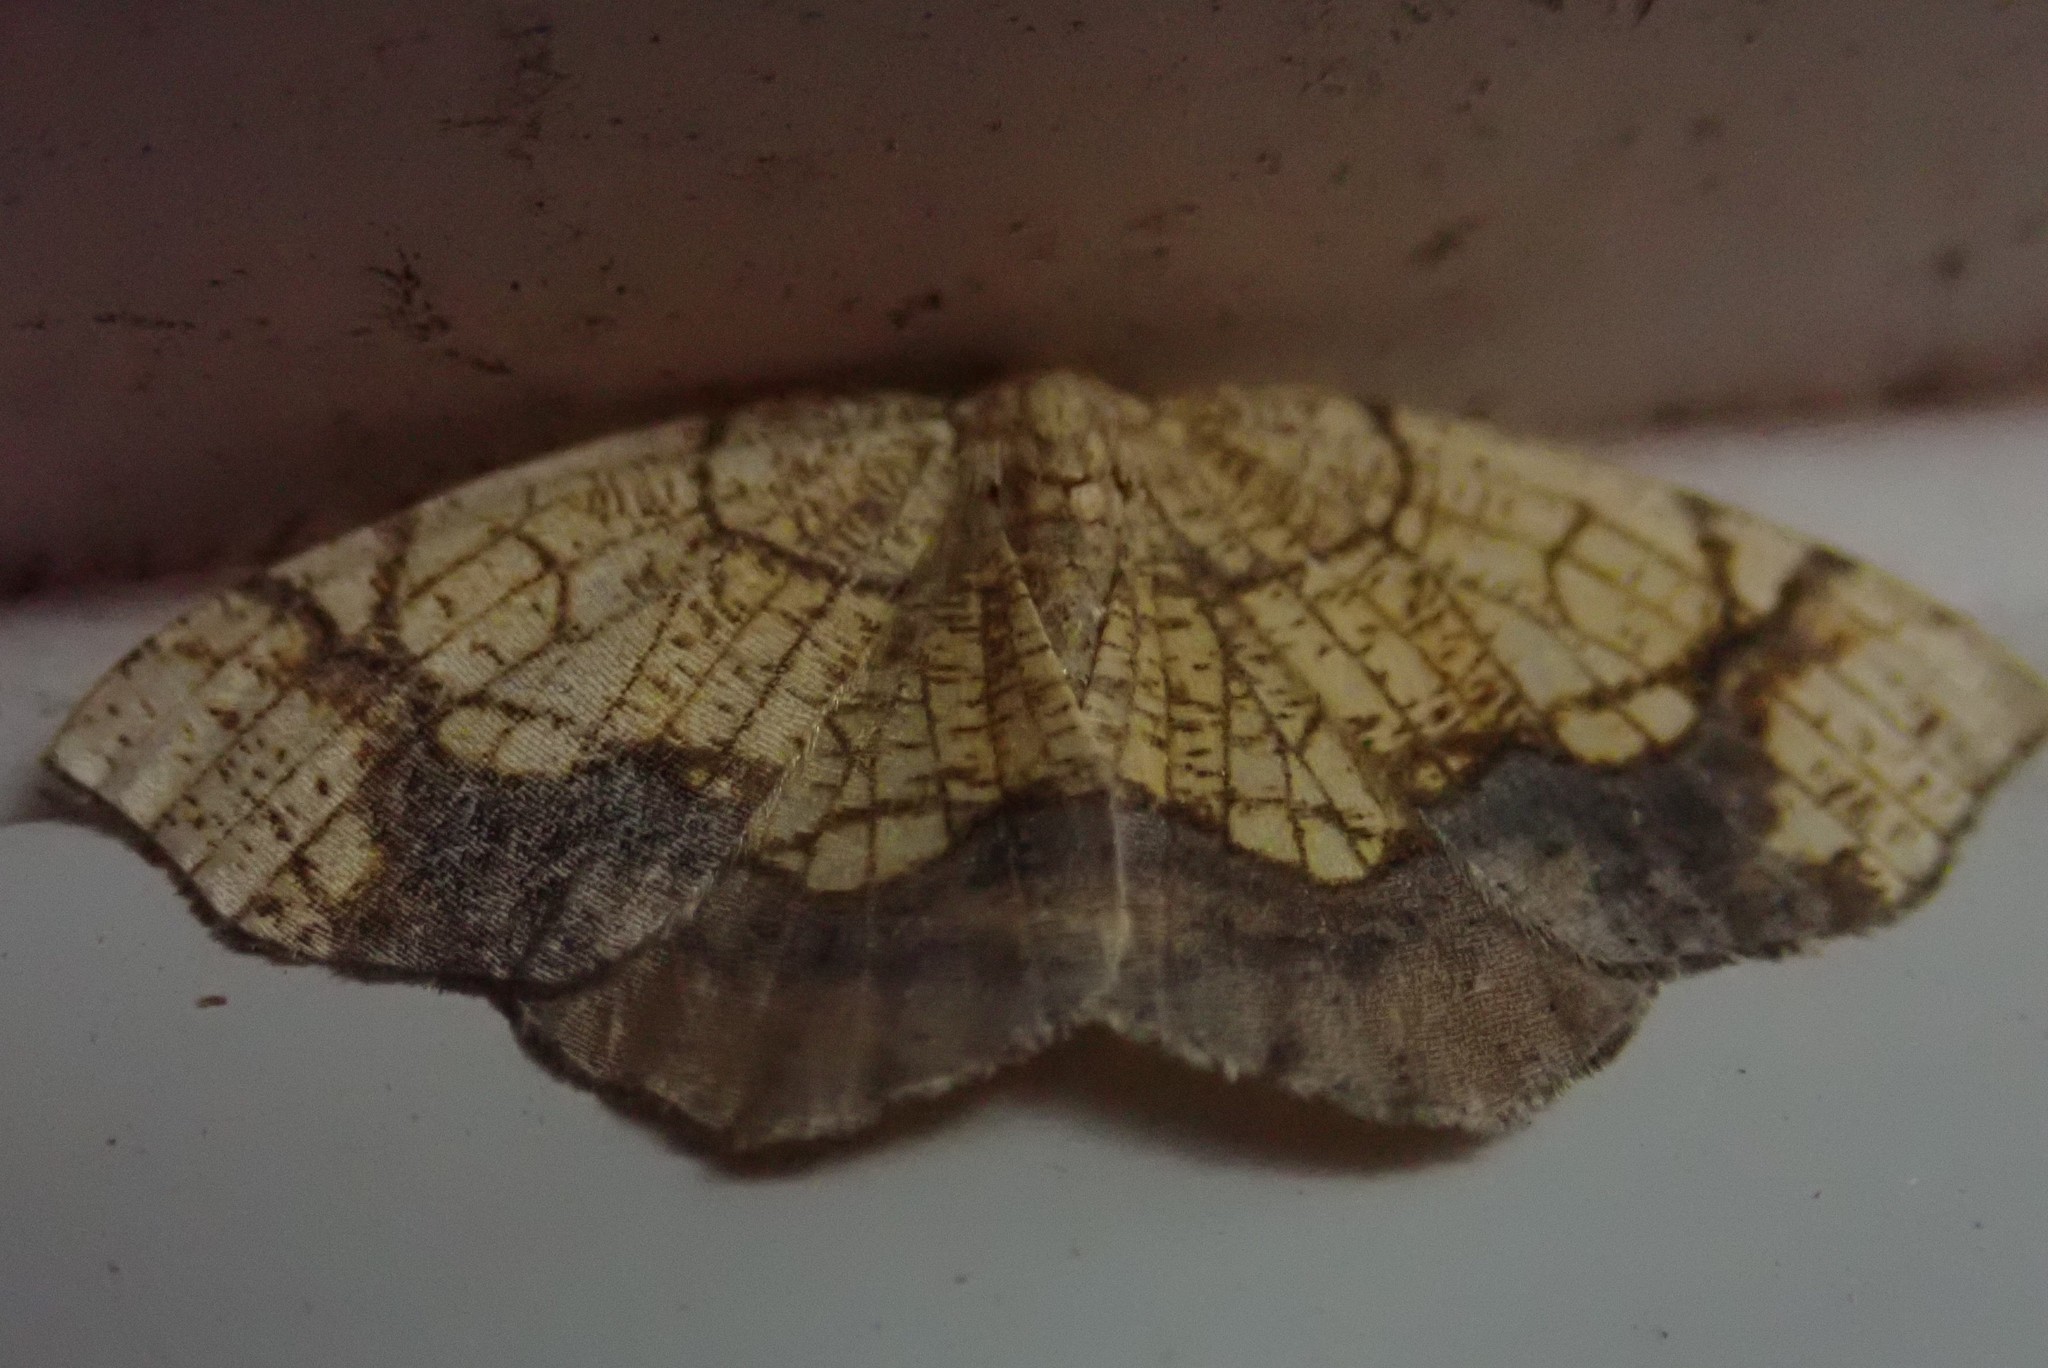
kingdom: Animalia
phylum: Arthropoda
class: Insecta
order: Lepidoptera
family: Geometridae
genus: Nematocampa
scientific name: Nematocampa resistaria
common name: Horned spanworm moth
